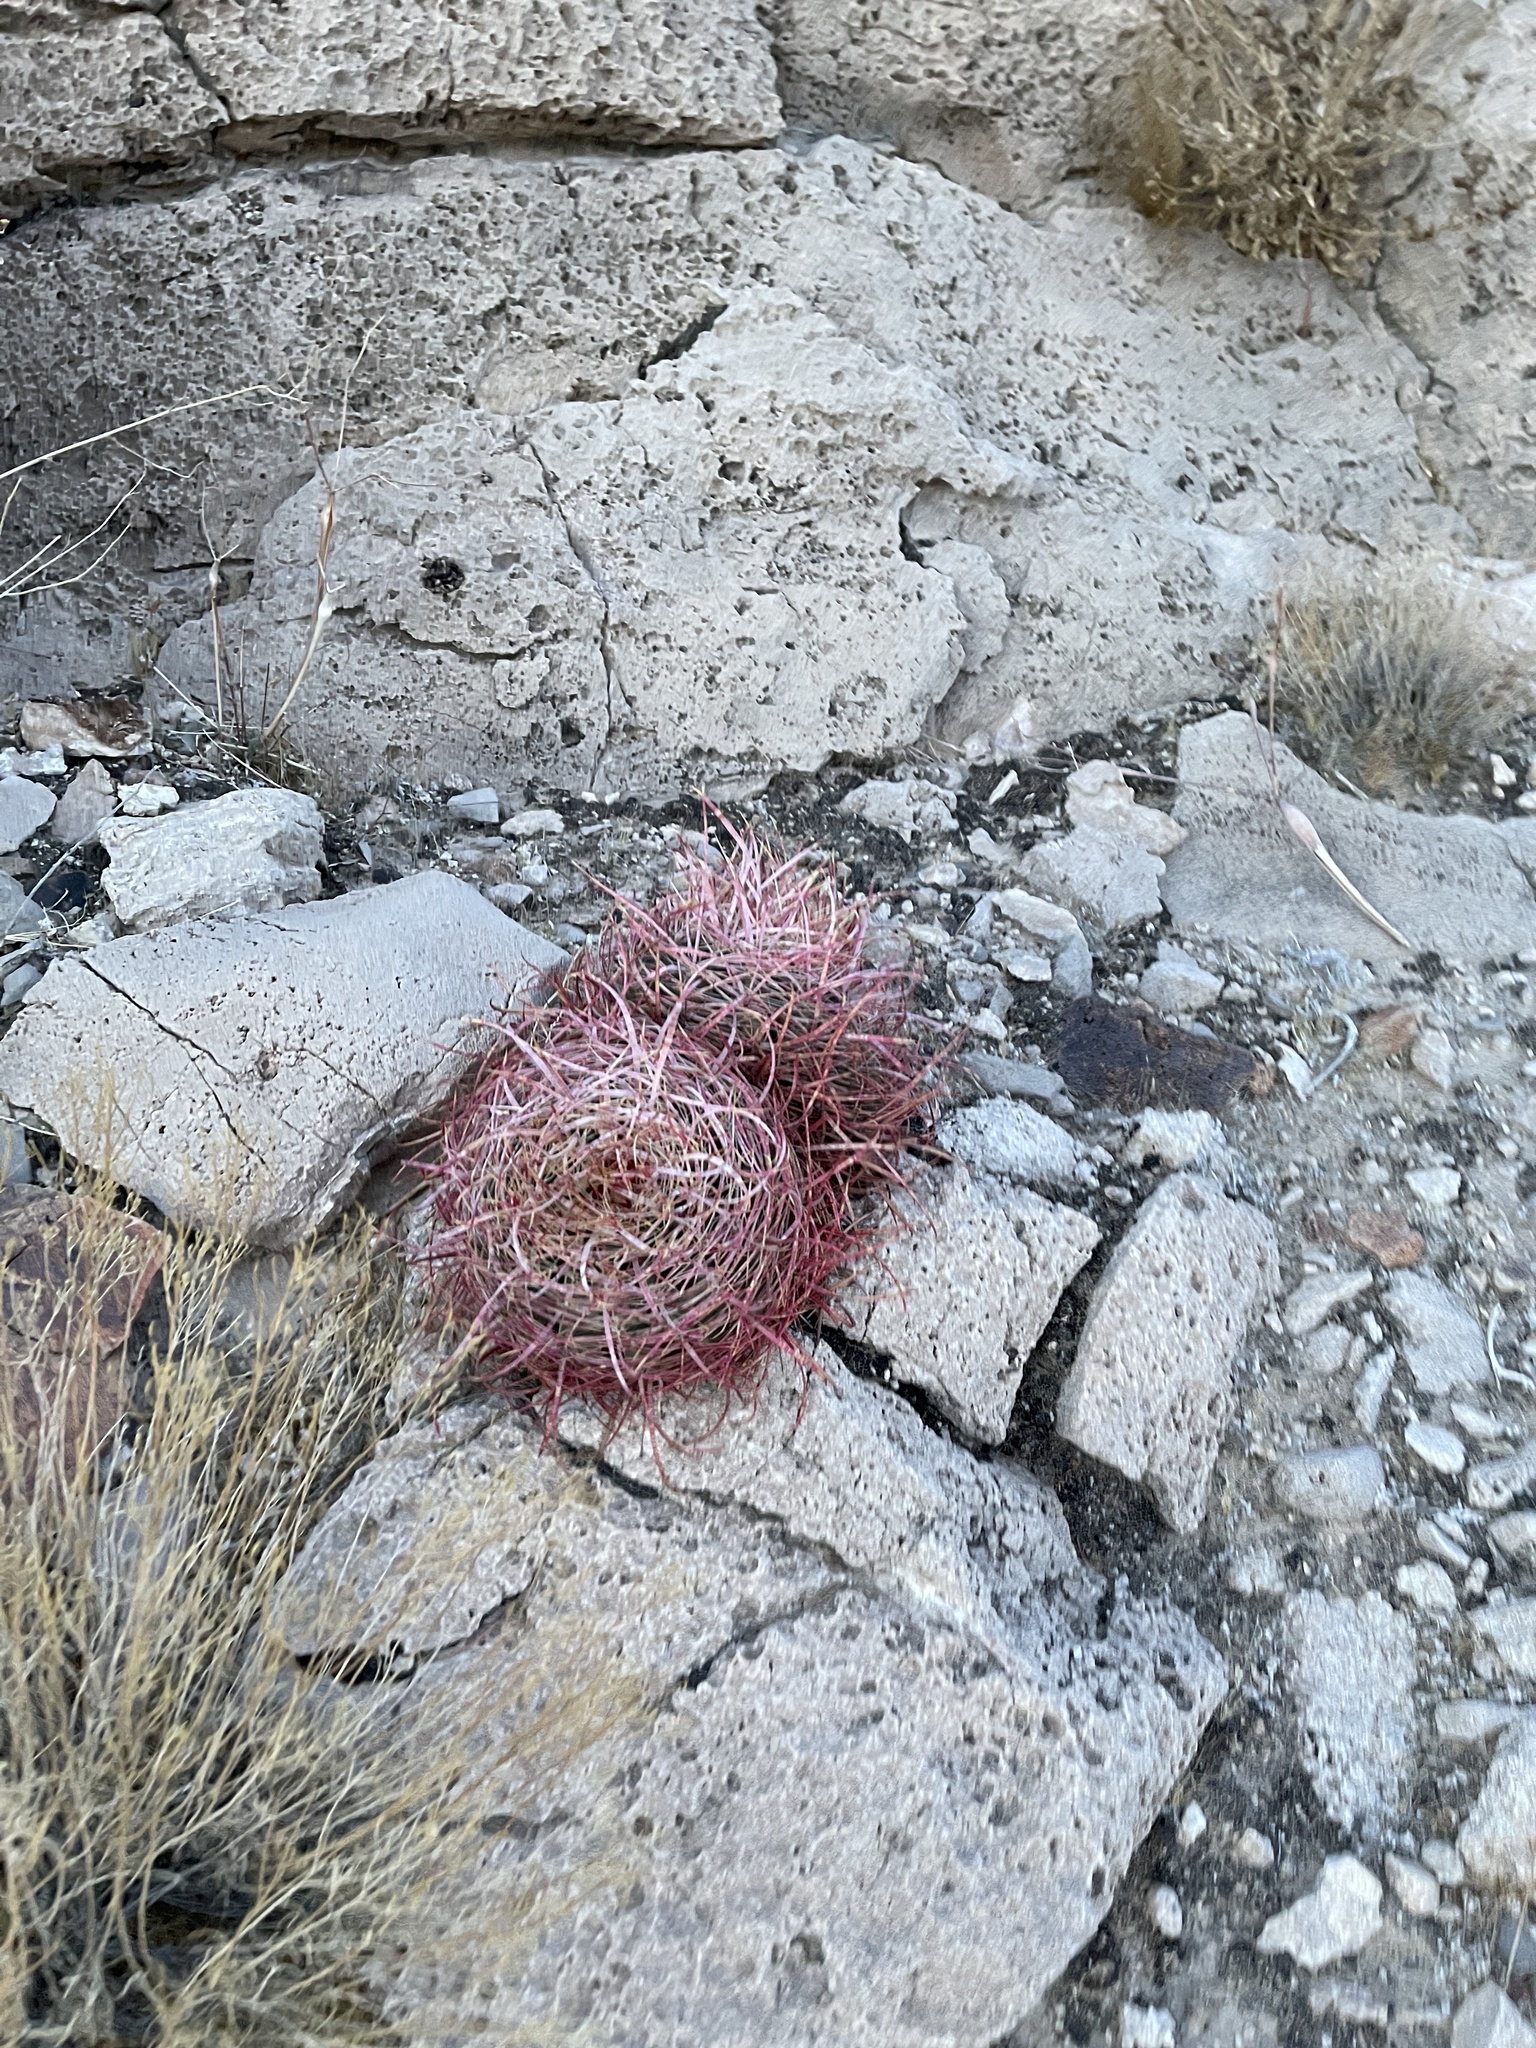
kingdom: Plantae
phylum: Tracheophyta
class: Magnoliopsida
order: Caryophyllales
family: Cactaceae
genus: Ferocactus
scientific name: Ferocactus cylindraceus
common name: California barrel cactus
